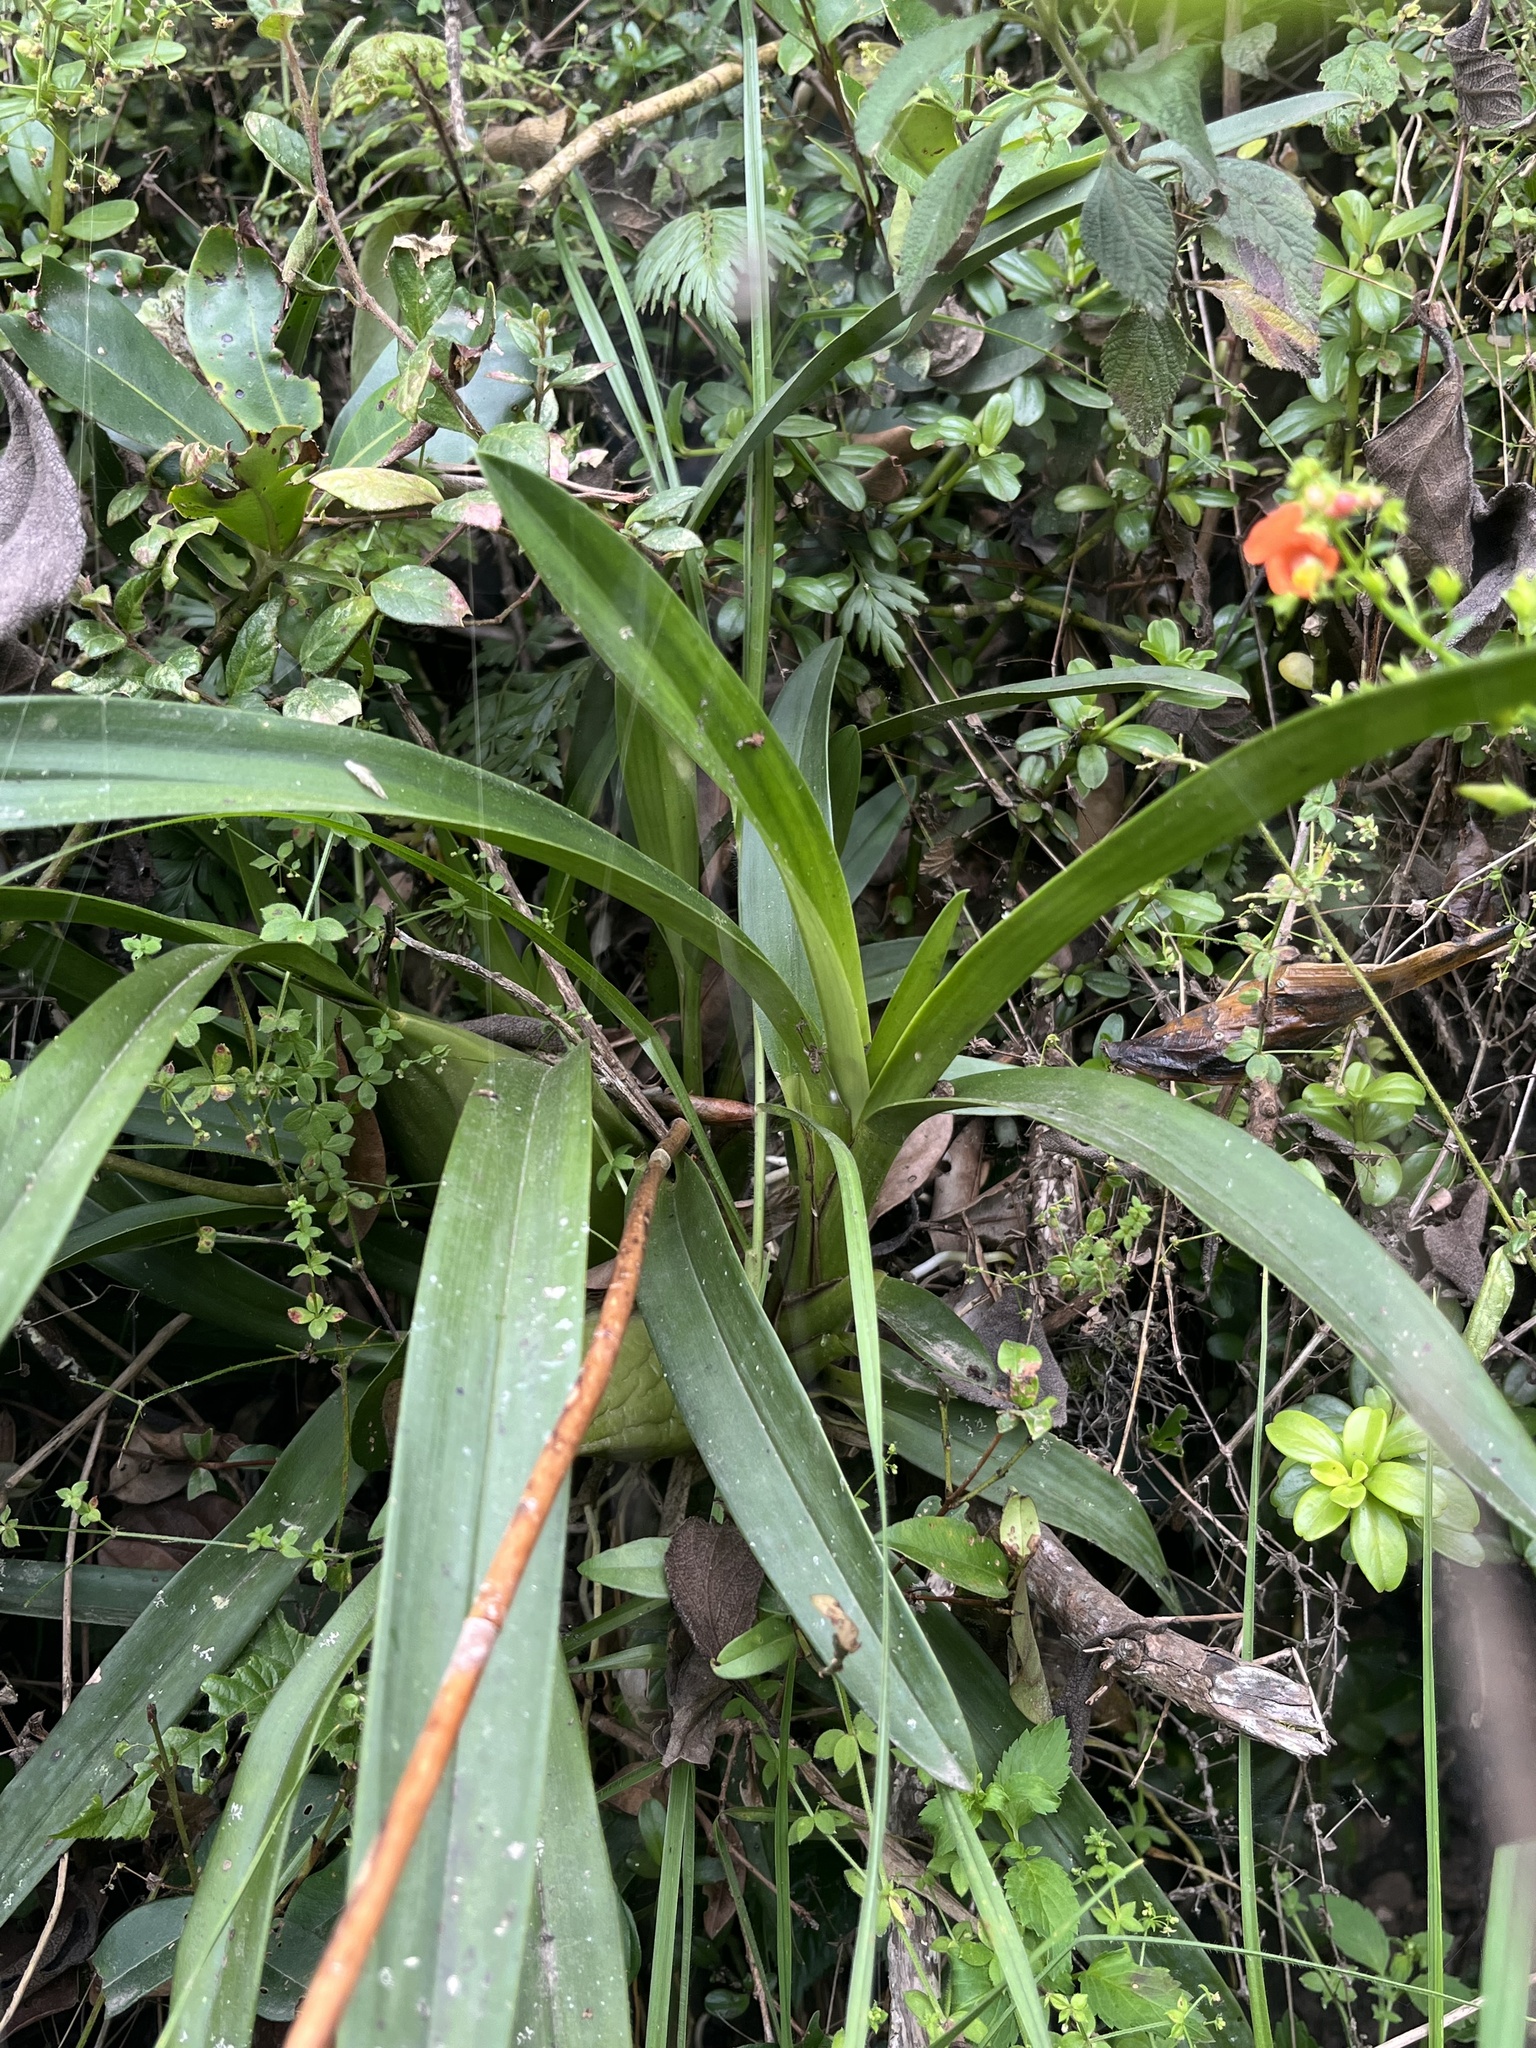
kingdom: Plantae
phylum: Tracheophyta
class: Liliopsida
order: Asparagales
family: Orchidaceae
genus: Cyrtochilum
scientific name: Cyrtochilum densiflorum
